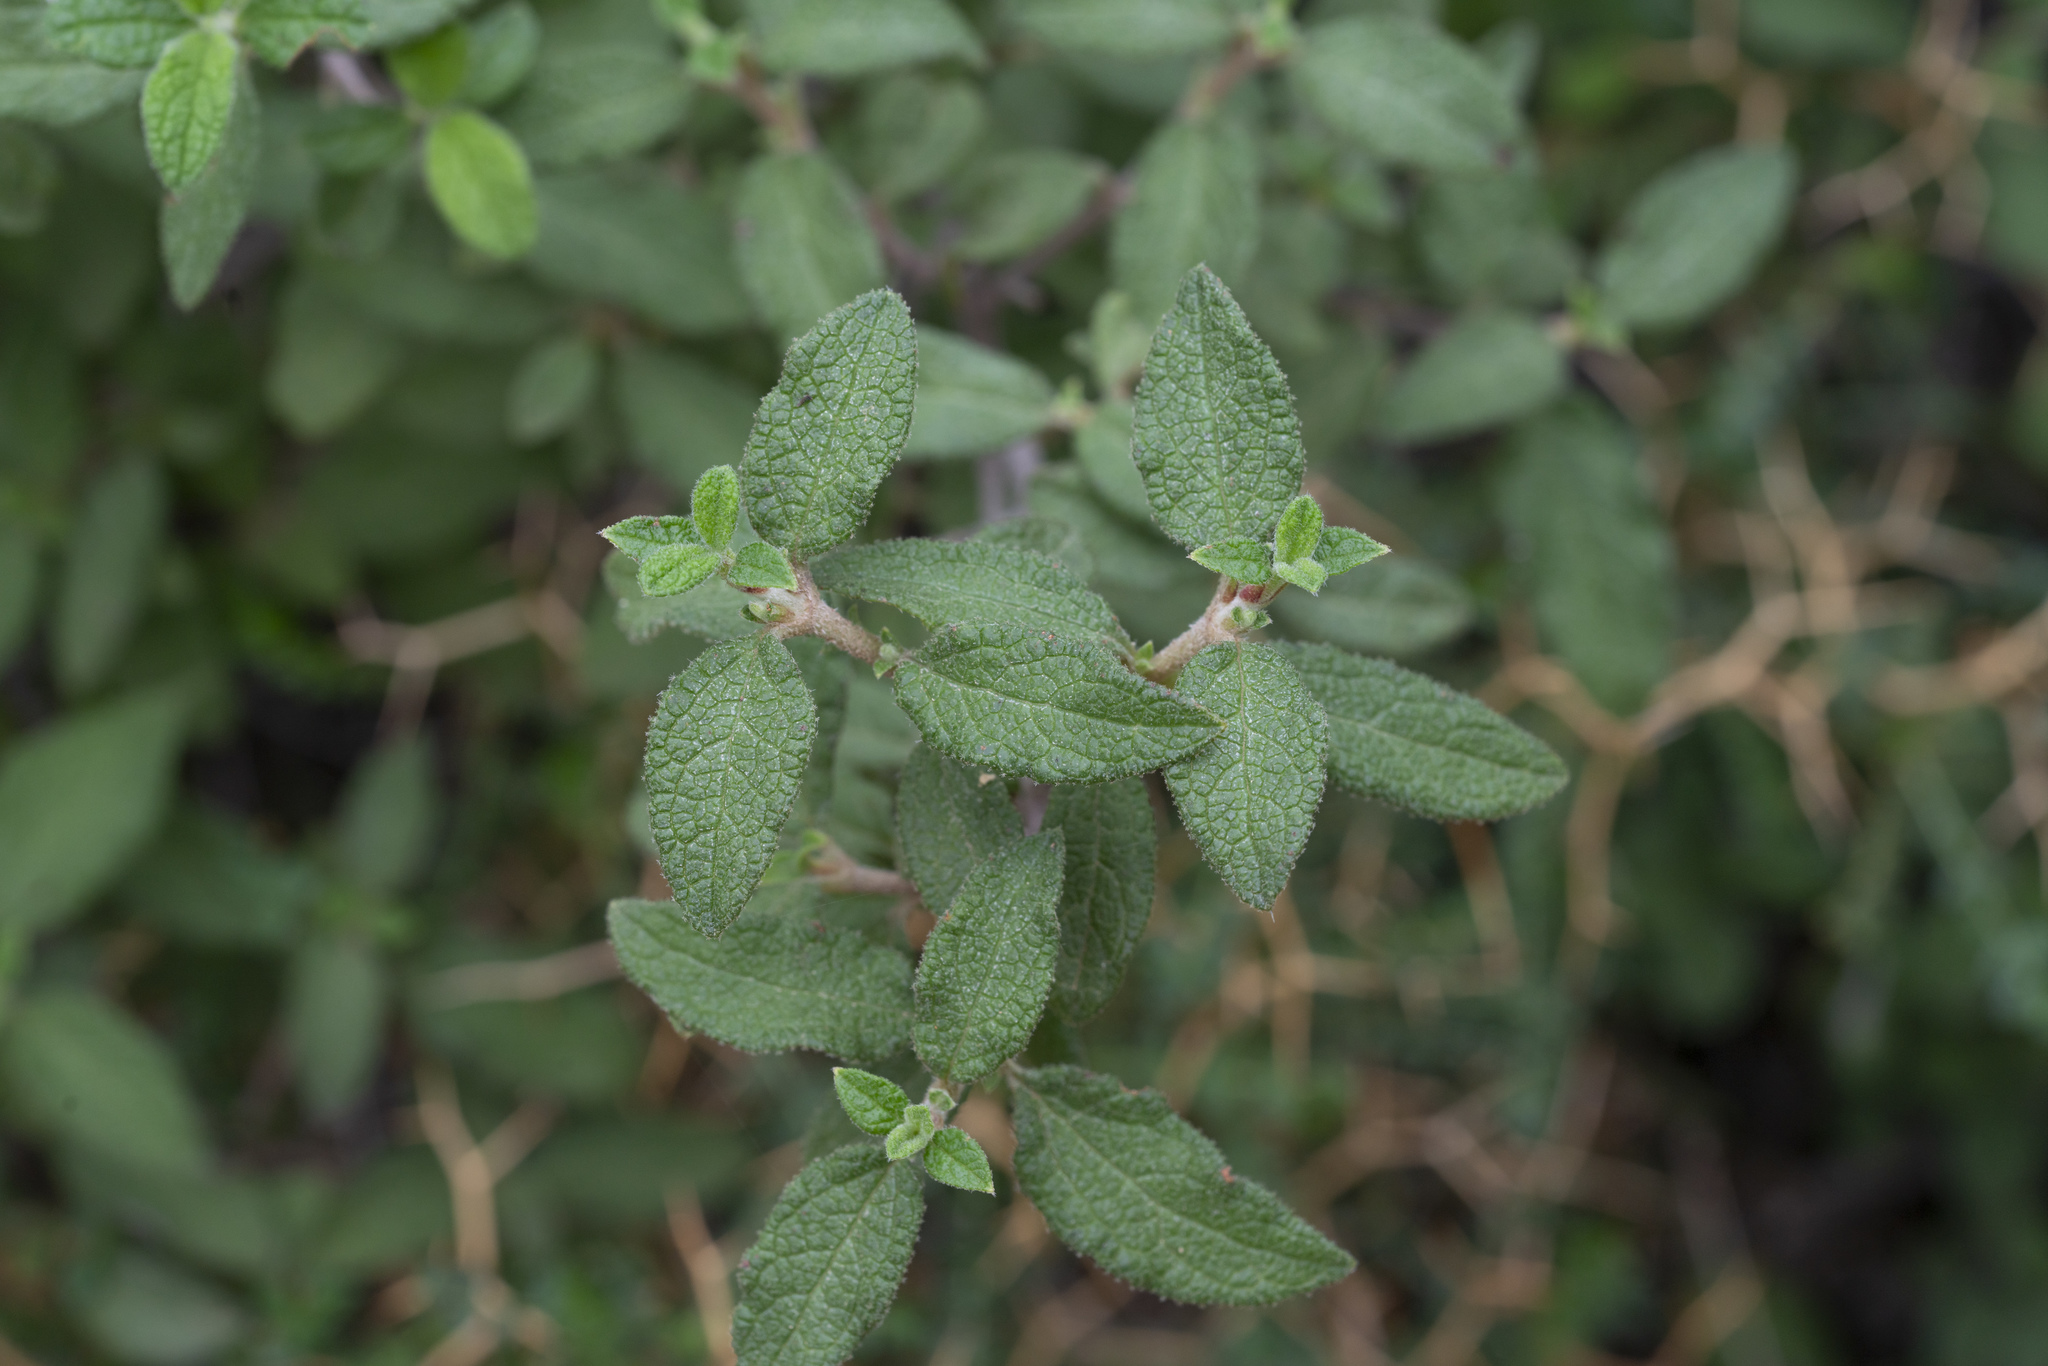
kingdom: Plantae
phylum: Tracheophyta
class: Magnoliopsida
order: Malvales
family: Cistaceae
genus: Cistus
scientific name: Cistus salviifolius
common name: Salvia cistus
